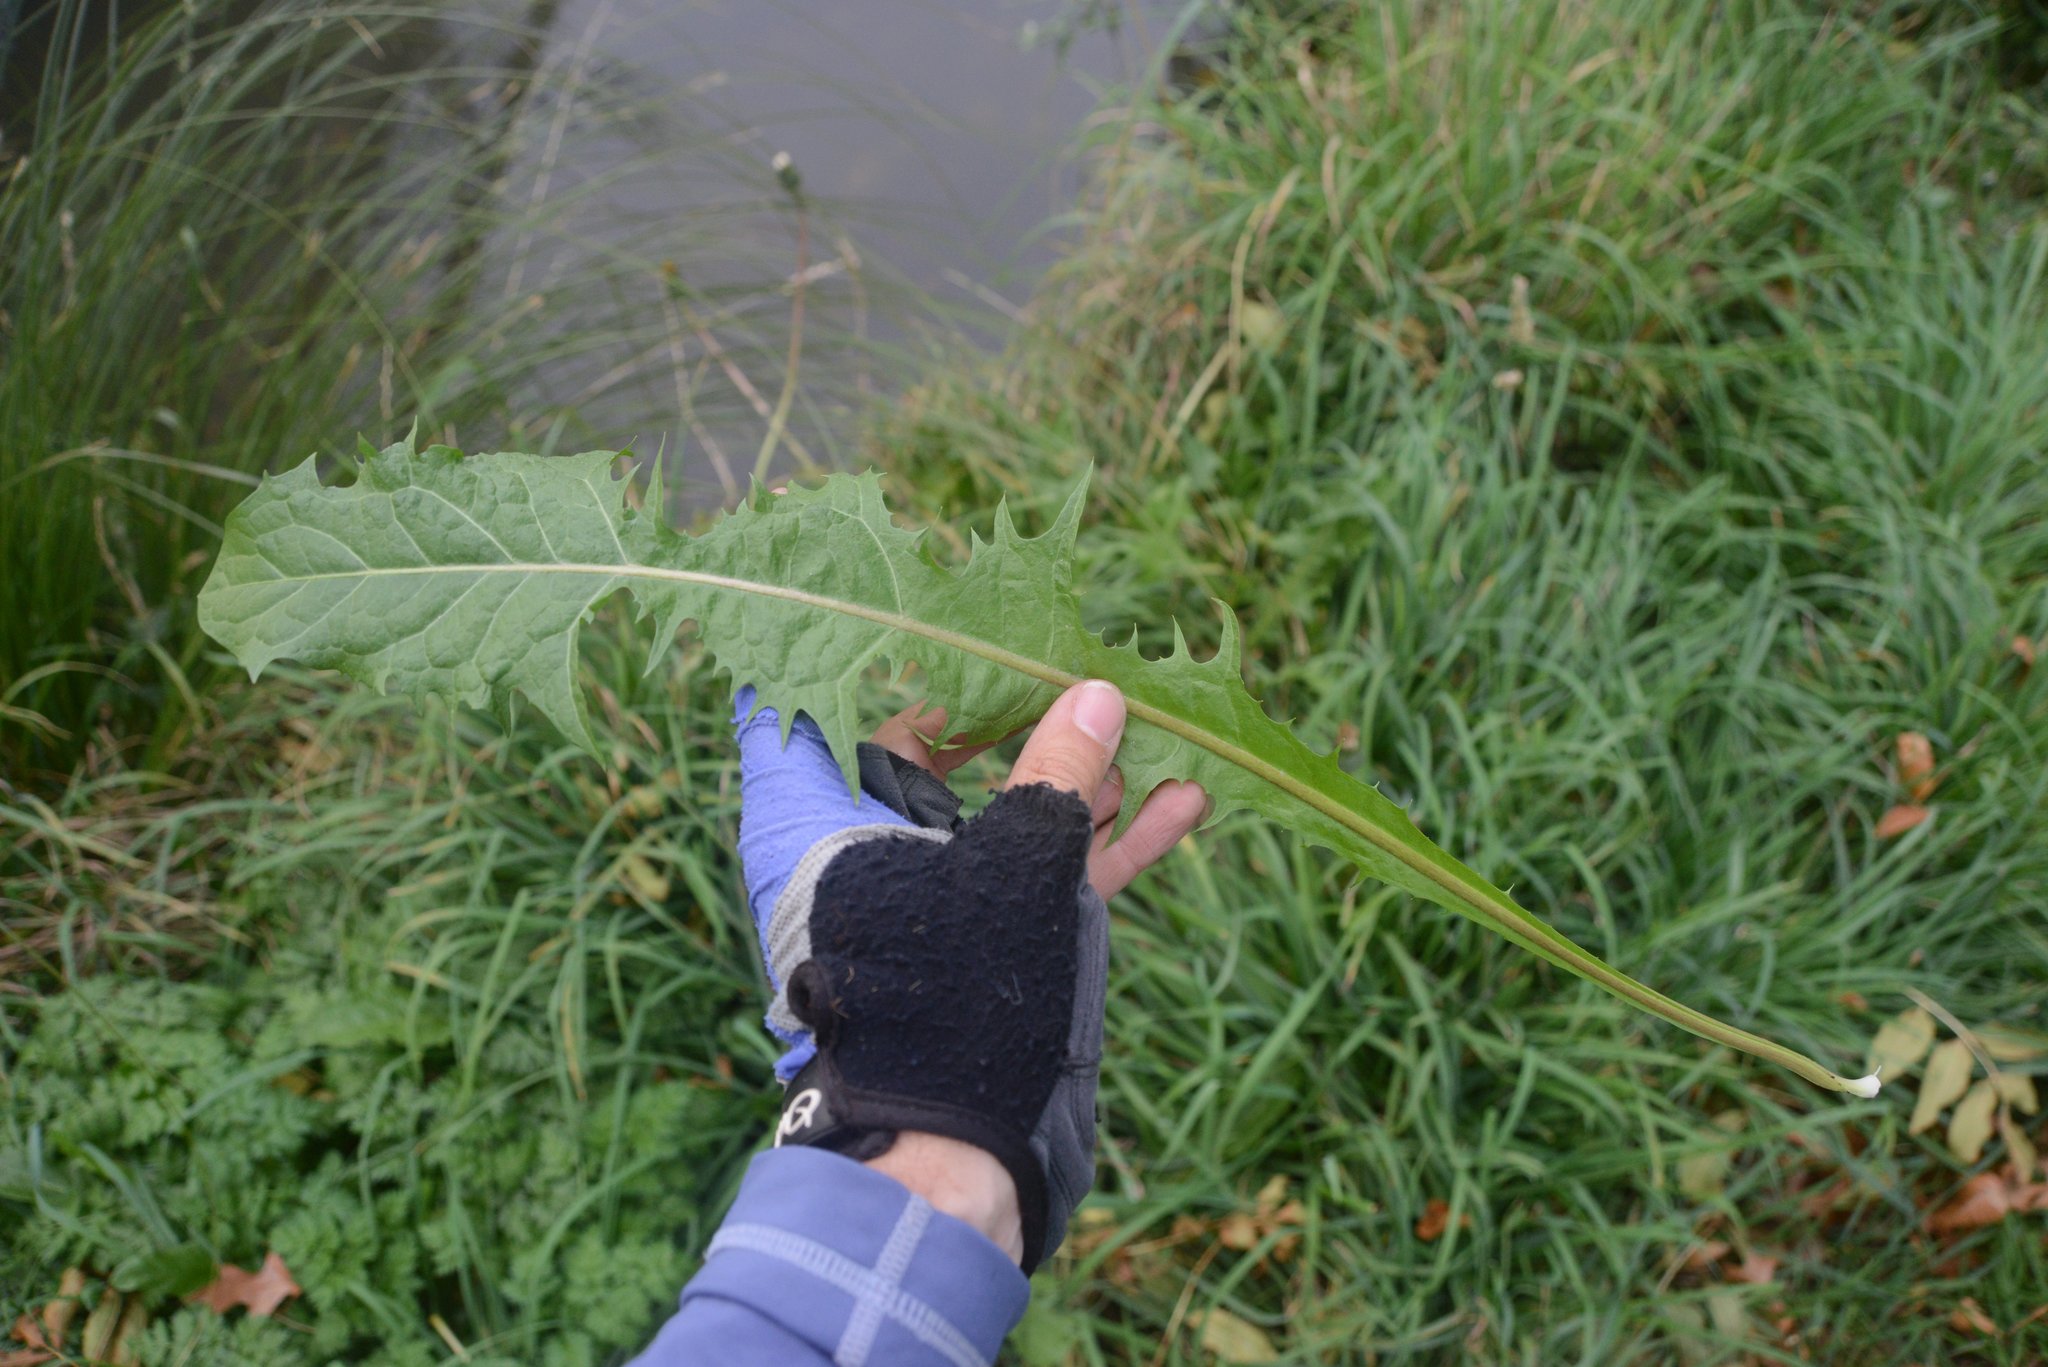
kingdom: Plantae
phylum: Tracheophyta
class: Magnoliopsida
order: Asterales
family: Asteraceae
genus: Taraxacum
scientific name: Taraxacum officinale
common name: Common dandelion
